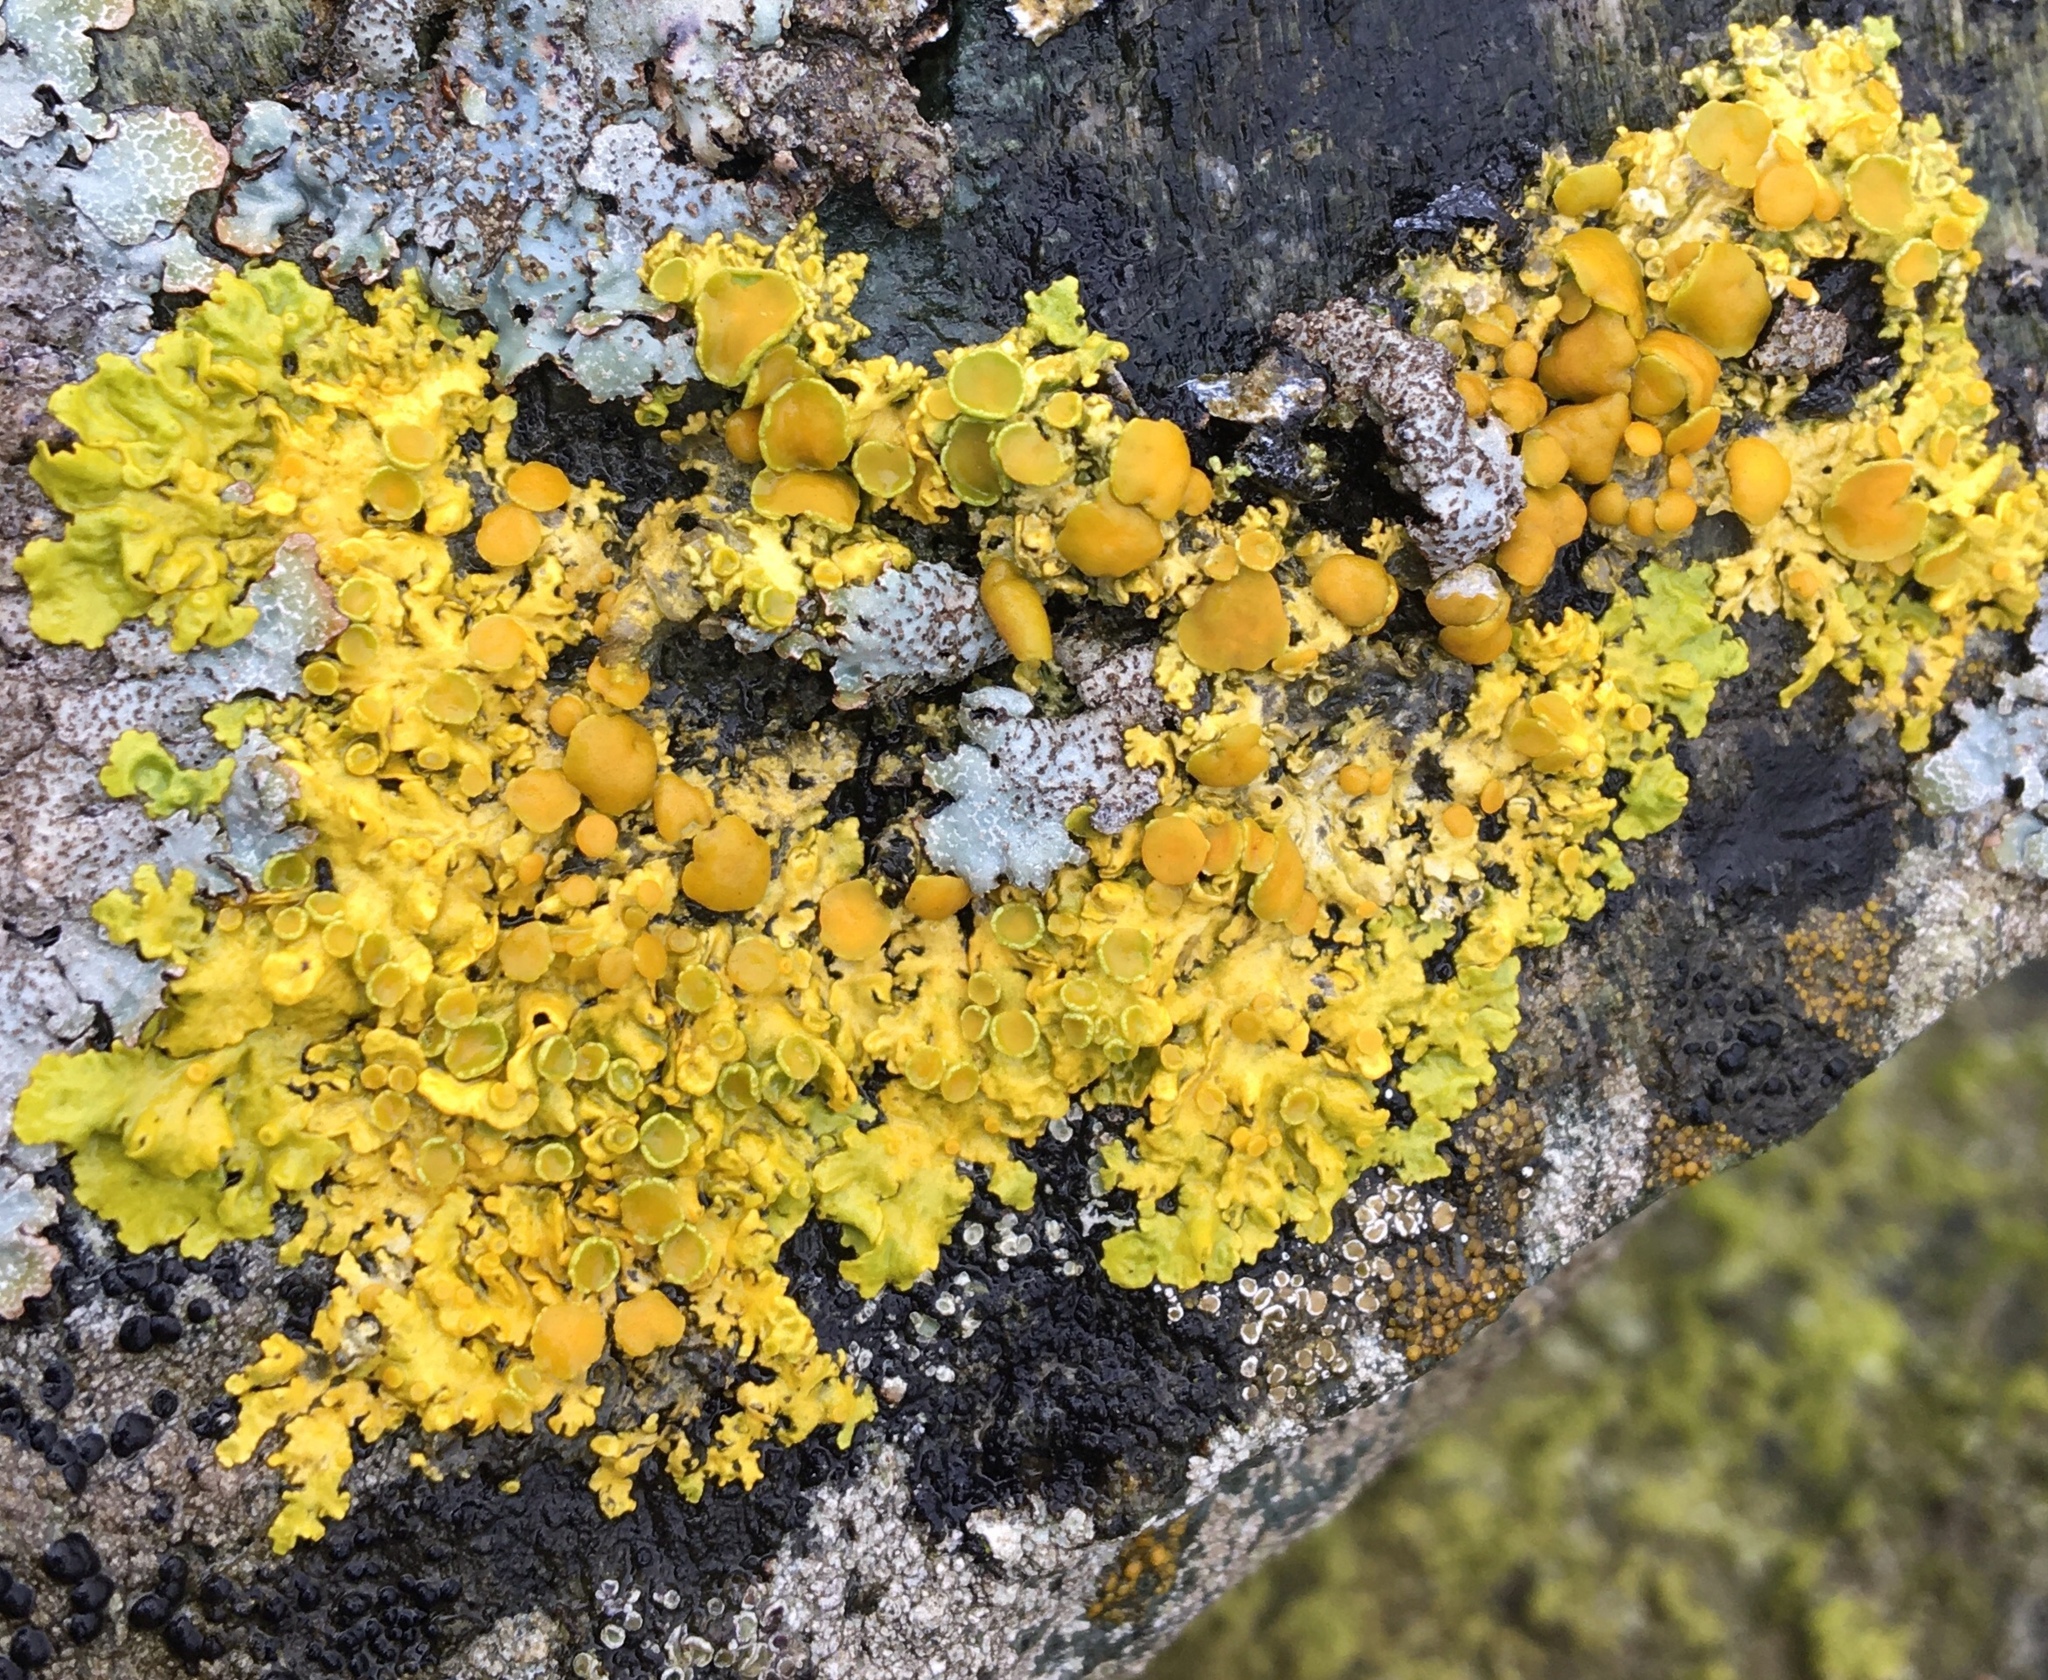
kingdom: Fungi
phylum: Ascomycota
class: Lecanoromycetes
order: Teloschistales
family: Teloschistaceae
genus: Xanthoria
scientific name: Xanthoria parietina
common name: Common orange lichen
